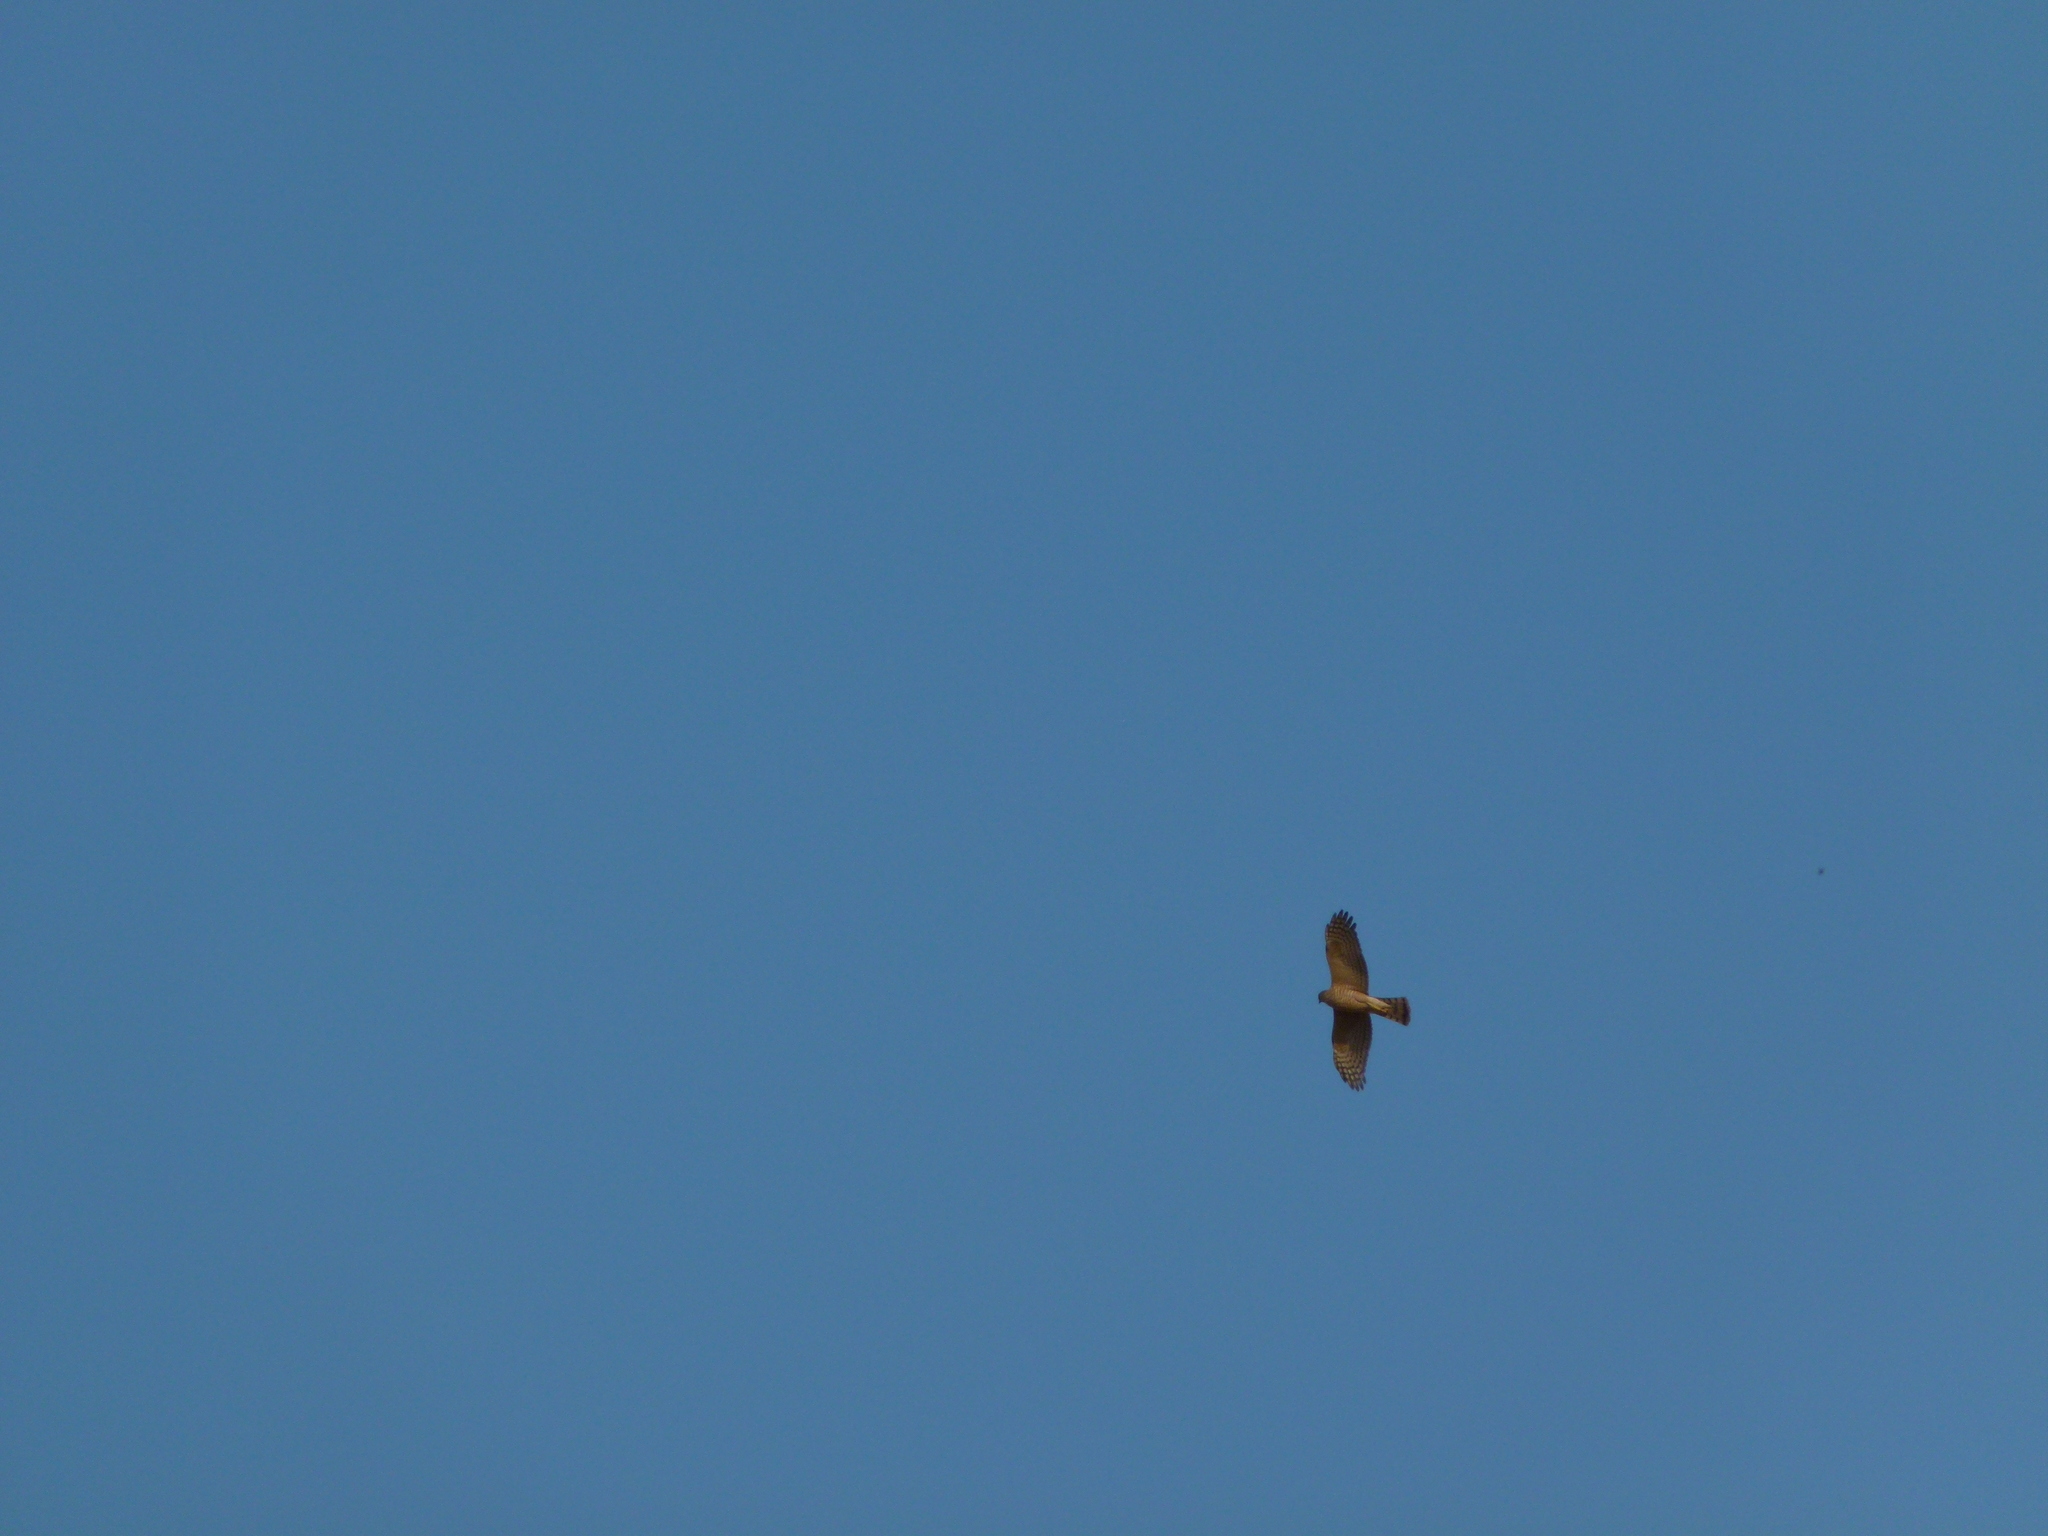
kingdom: Animalia
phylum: Chordata
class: Aves
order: Accipitriformes
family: Accipitridae
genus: Accipiter
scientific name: Accipiter nisus
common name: Eurasian sparrowhawk
